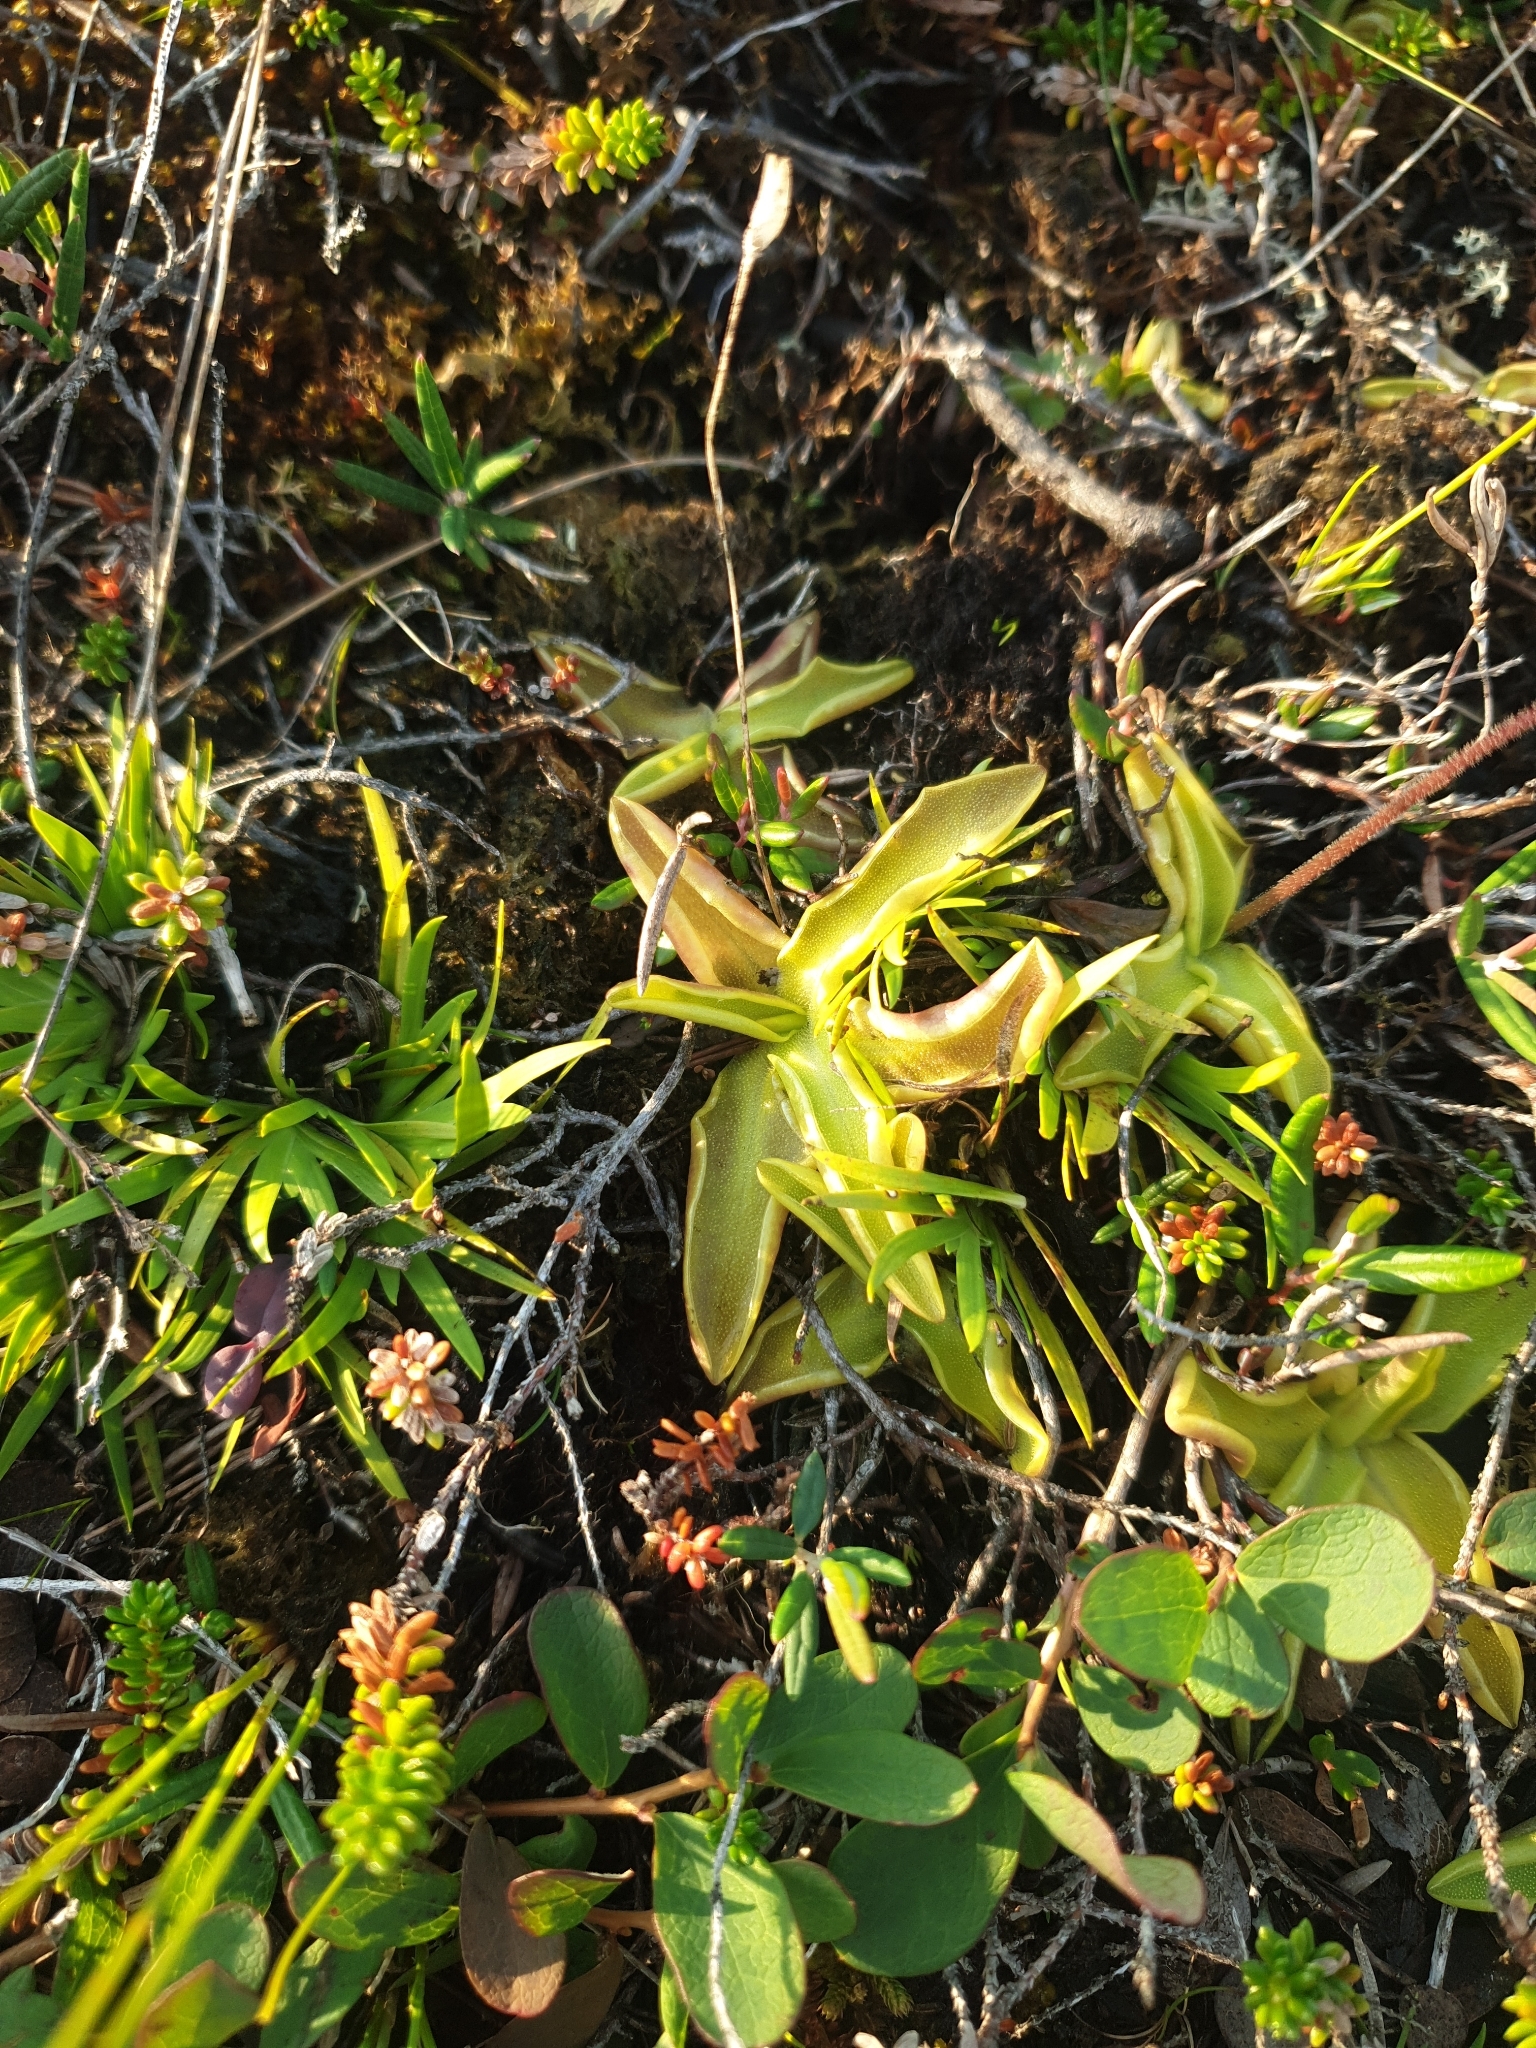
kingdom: Plantae
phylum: Tracheophyta
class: Magnoliopsida
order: Lamiales
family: Lentibulariaceae
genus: Pinguicula
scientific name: Pinguicula vulgaris
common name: Common butterwort
